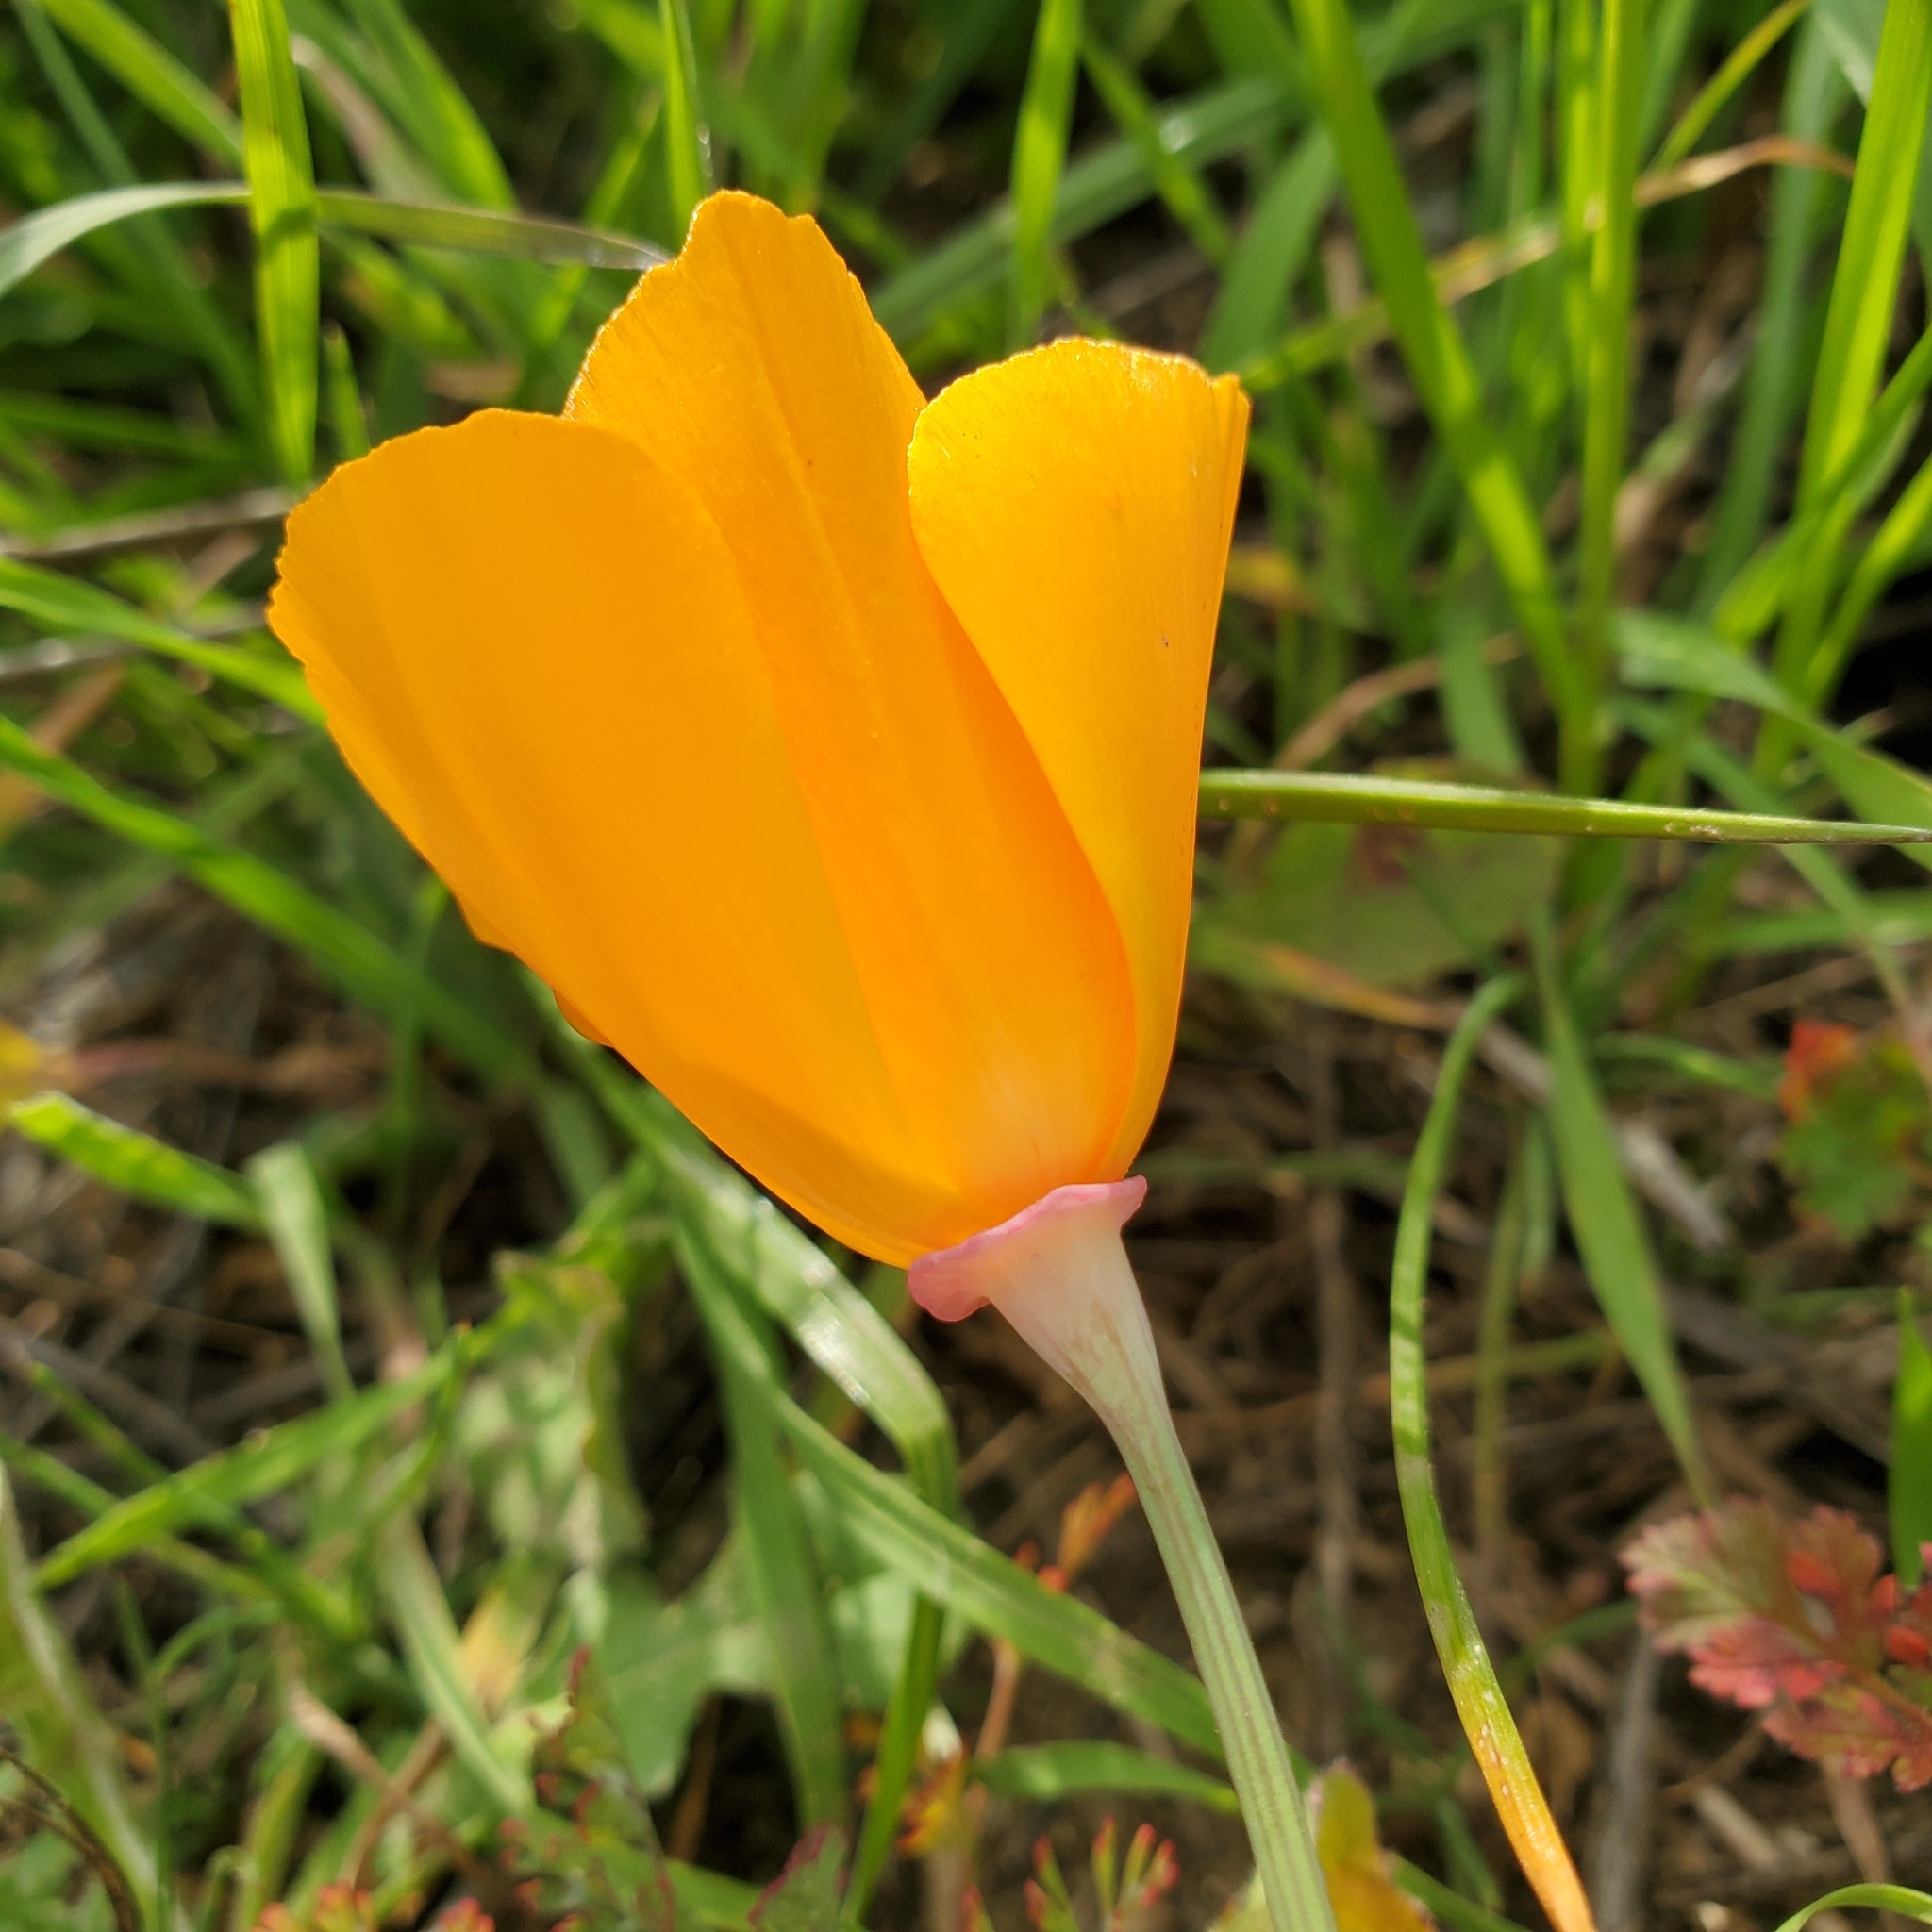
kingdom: Plantae
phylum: Tracheophyta
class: Magnoliopsida
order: Ranunculales
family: Papaveraceae
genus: Eschscholzia
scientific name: Eschscholzia californica
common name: California poppy
